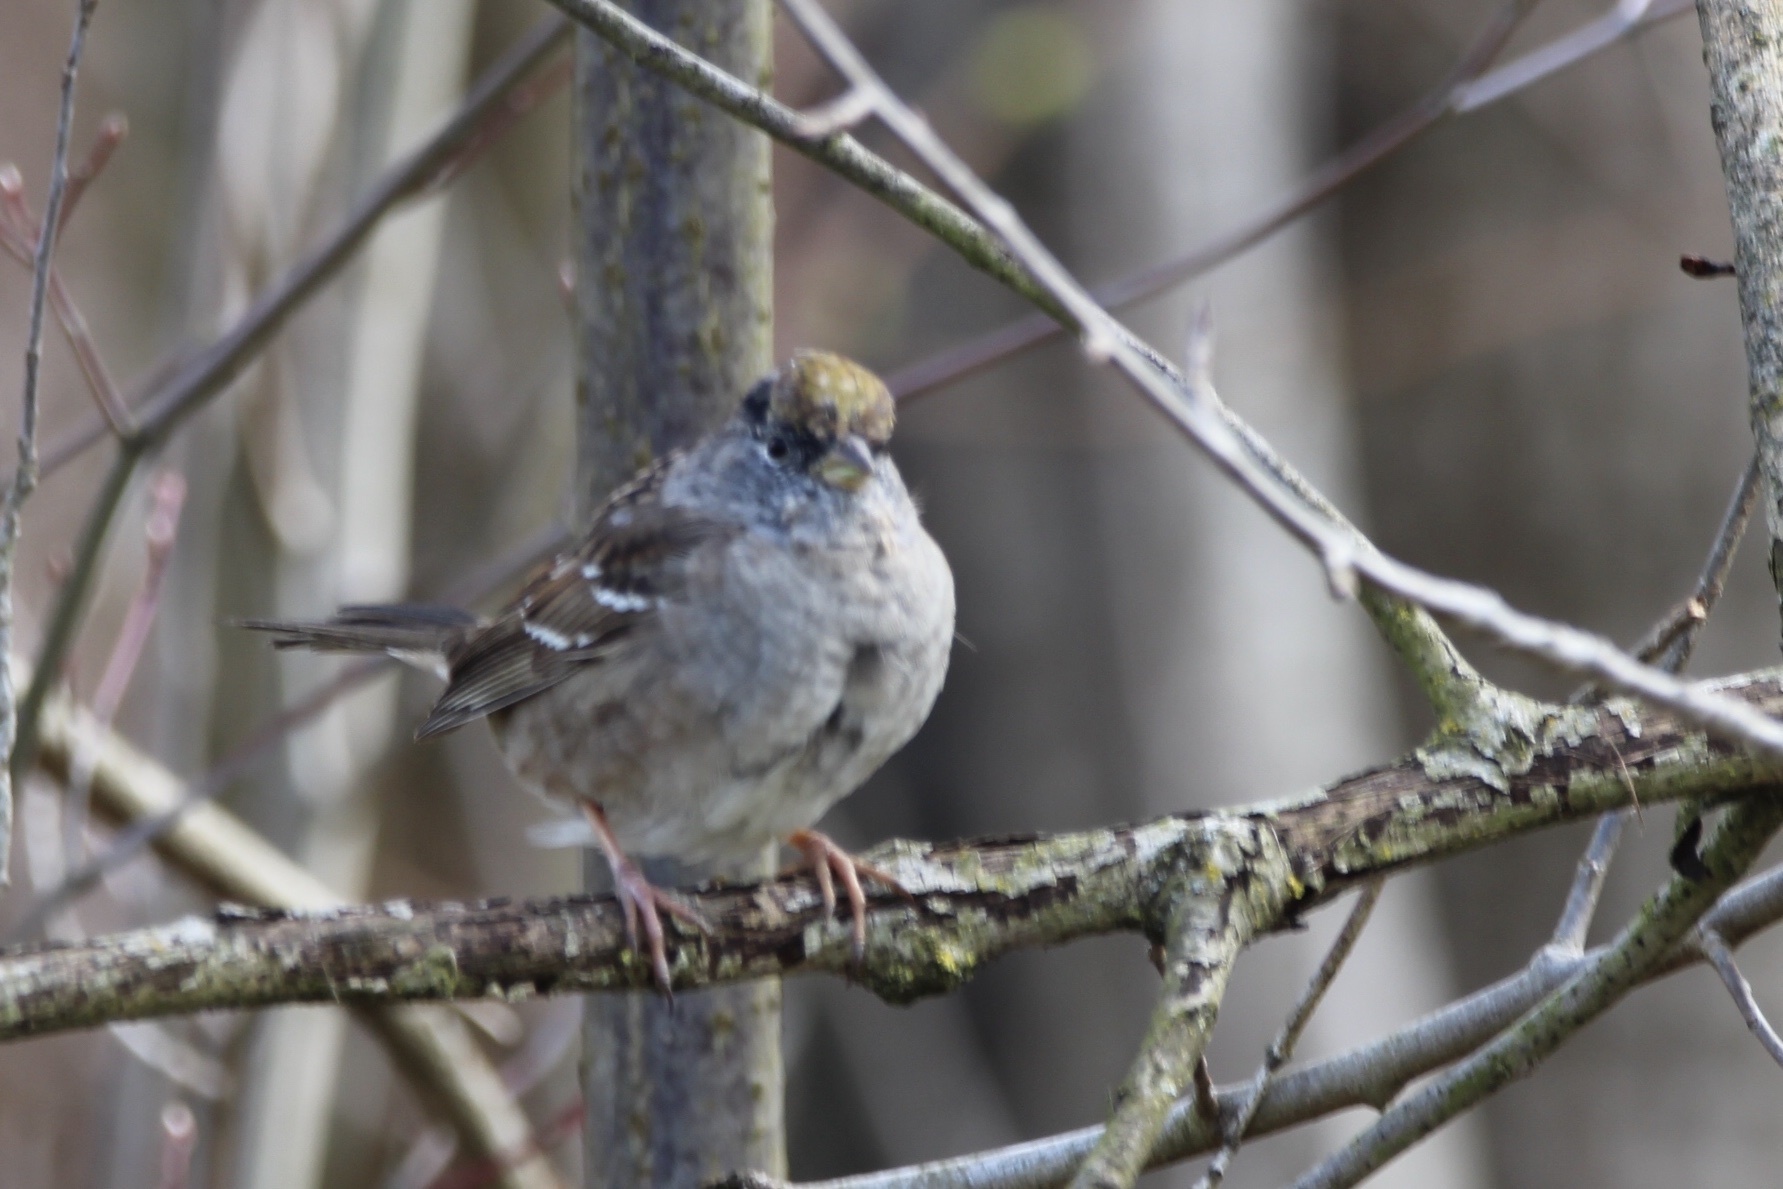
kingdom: Animalia
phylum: Chordata
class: Aves
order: Passeriformes
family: Passerellidae
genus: Zonotrichia
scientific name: Zonotrichia atricapilla
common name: Golden-crowned sparrow
